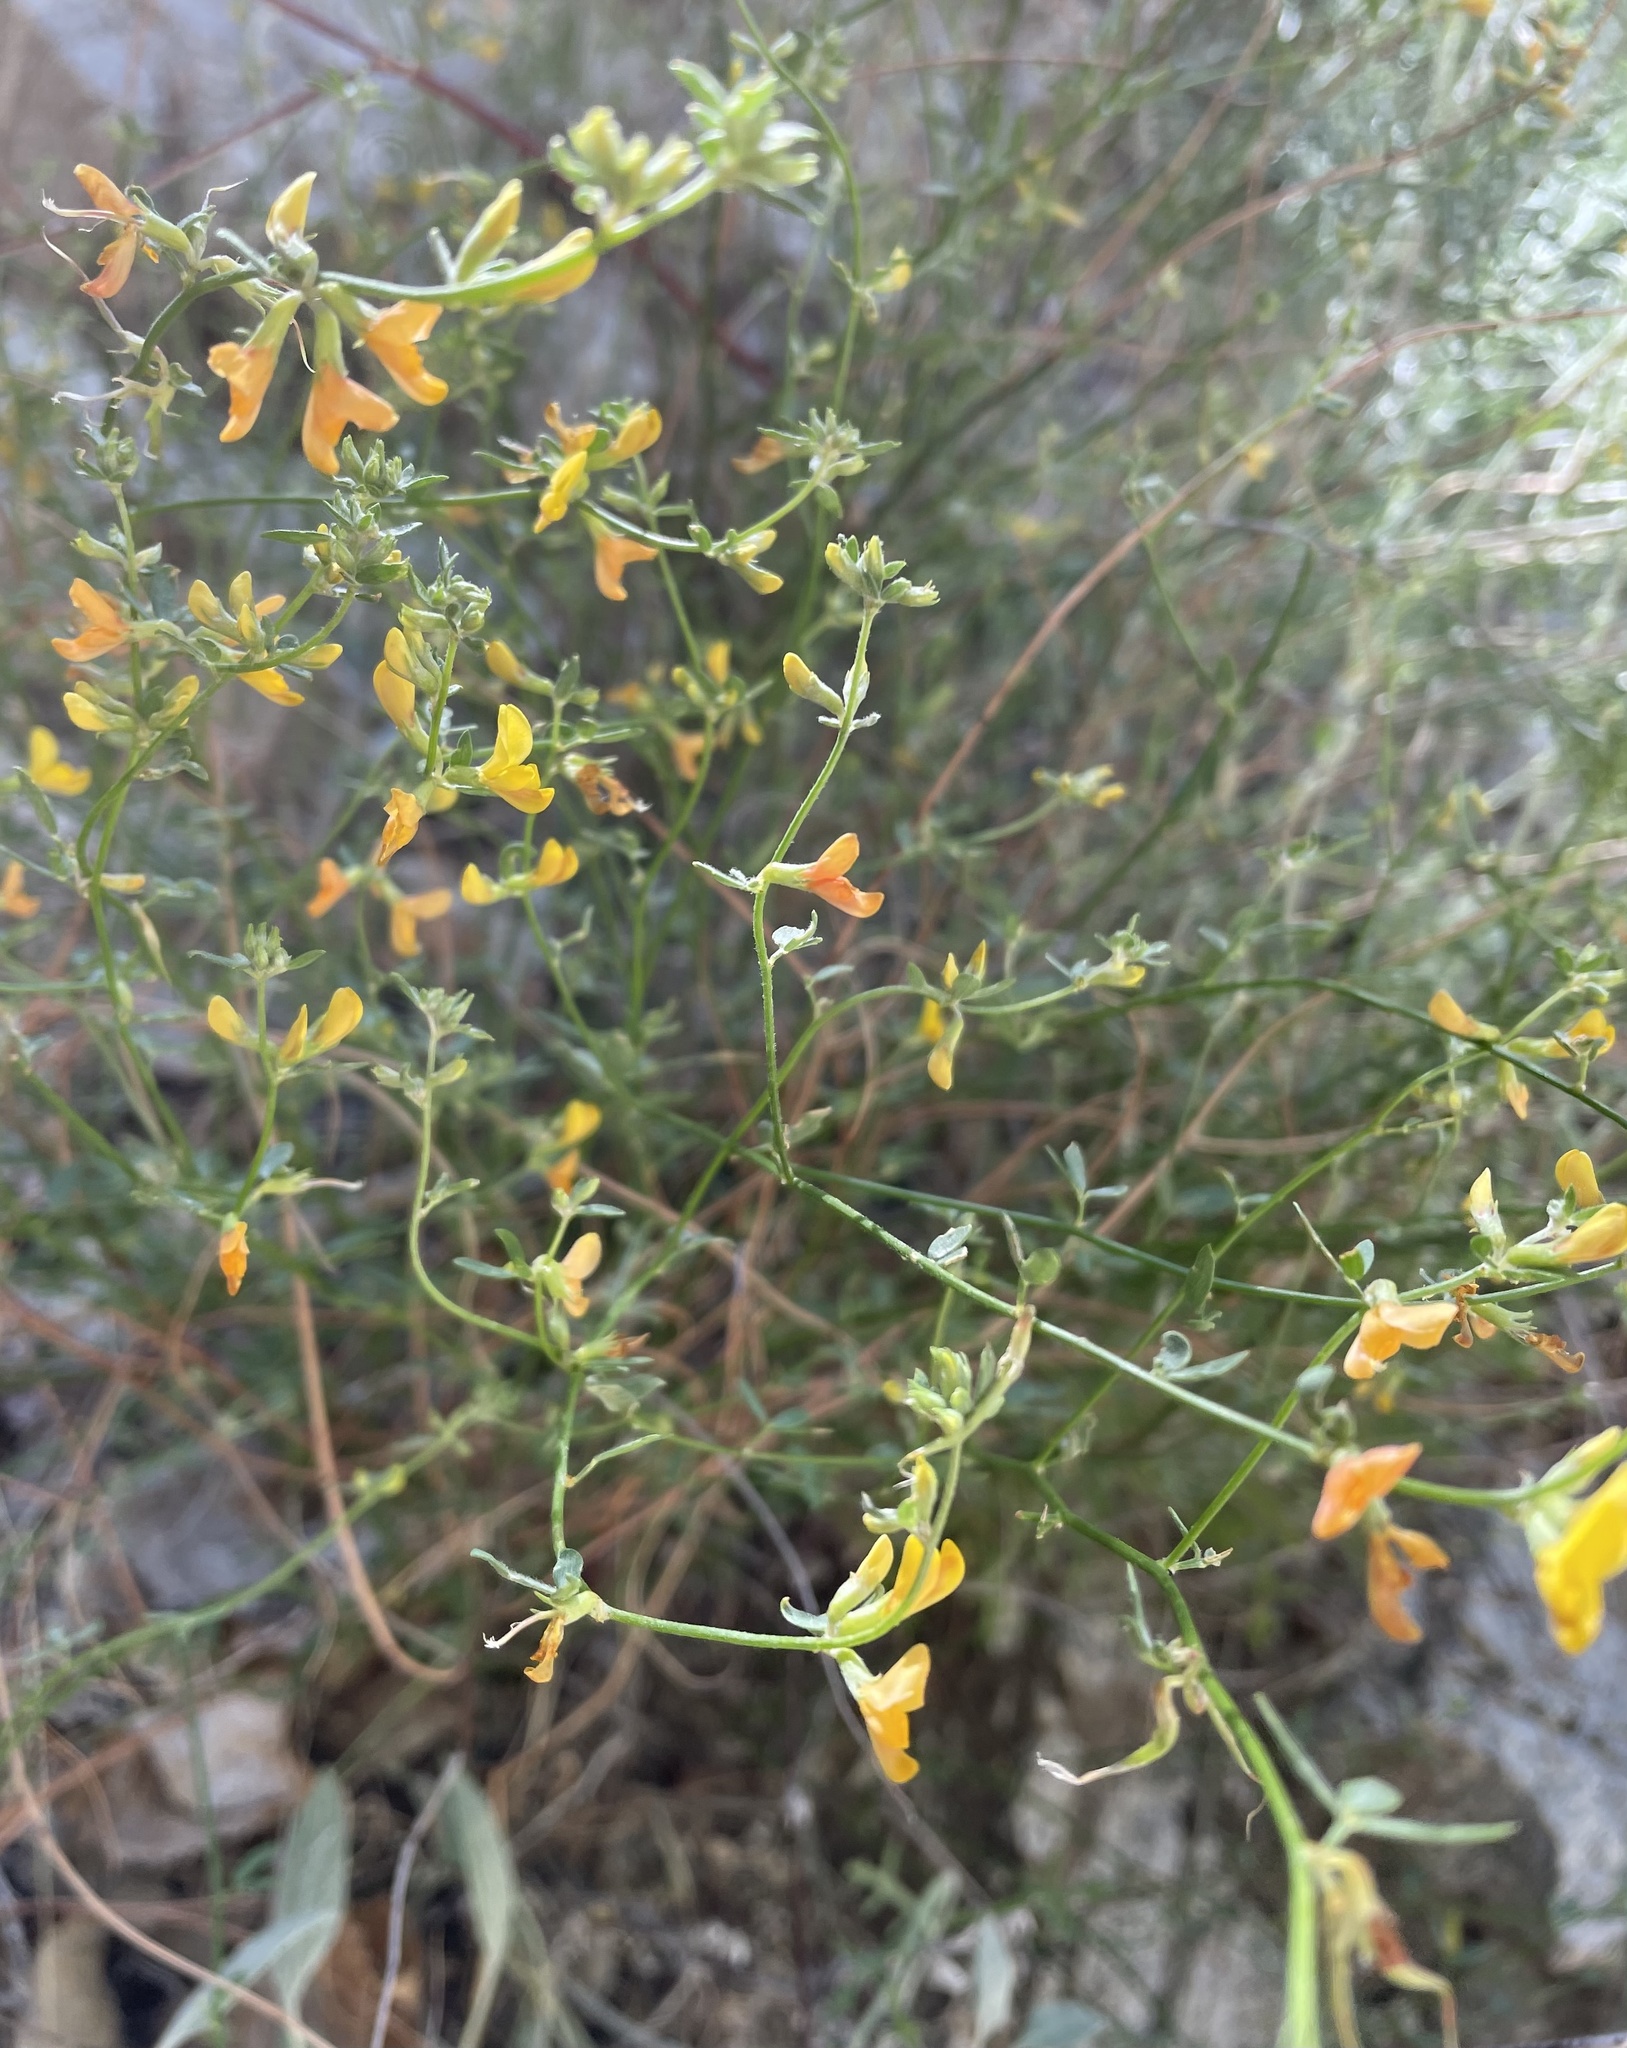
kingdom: Plantae
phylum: Tracheophyta
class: Magnoliopsida
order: Fabales
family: Fabaceae
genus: Acmispon
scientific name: Acmispon glaber
